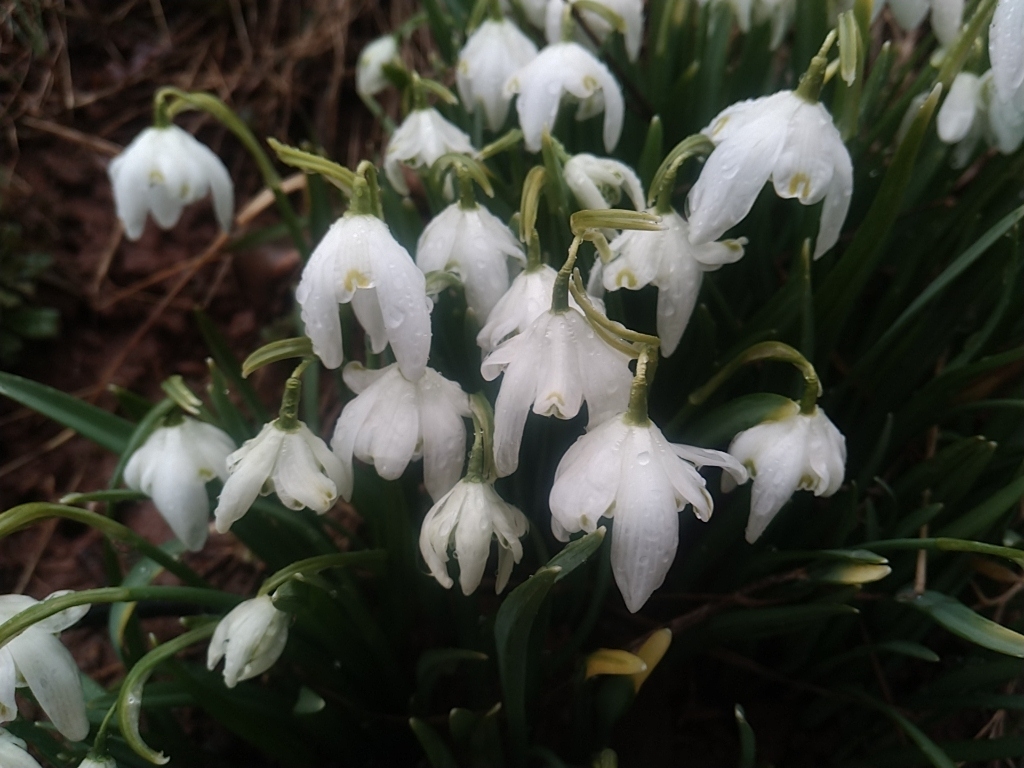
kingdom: Plantae
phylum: Tracheophyta
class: Liliopsida
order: Asparagales
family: Amaryllidaceae
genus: Galanthus
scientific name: Galanthus nivalis
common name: Snowdrop
